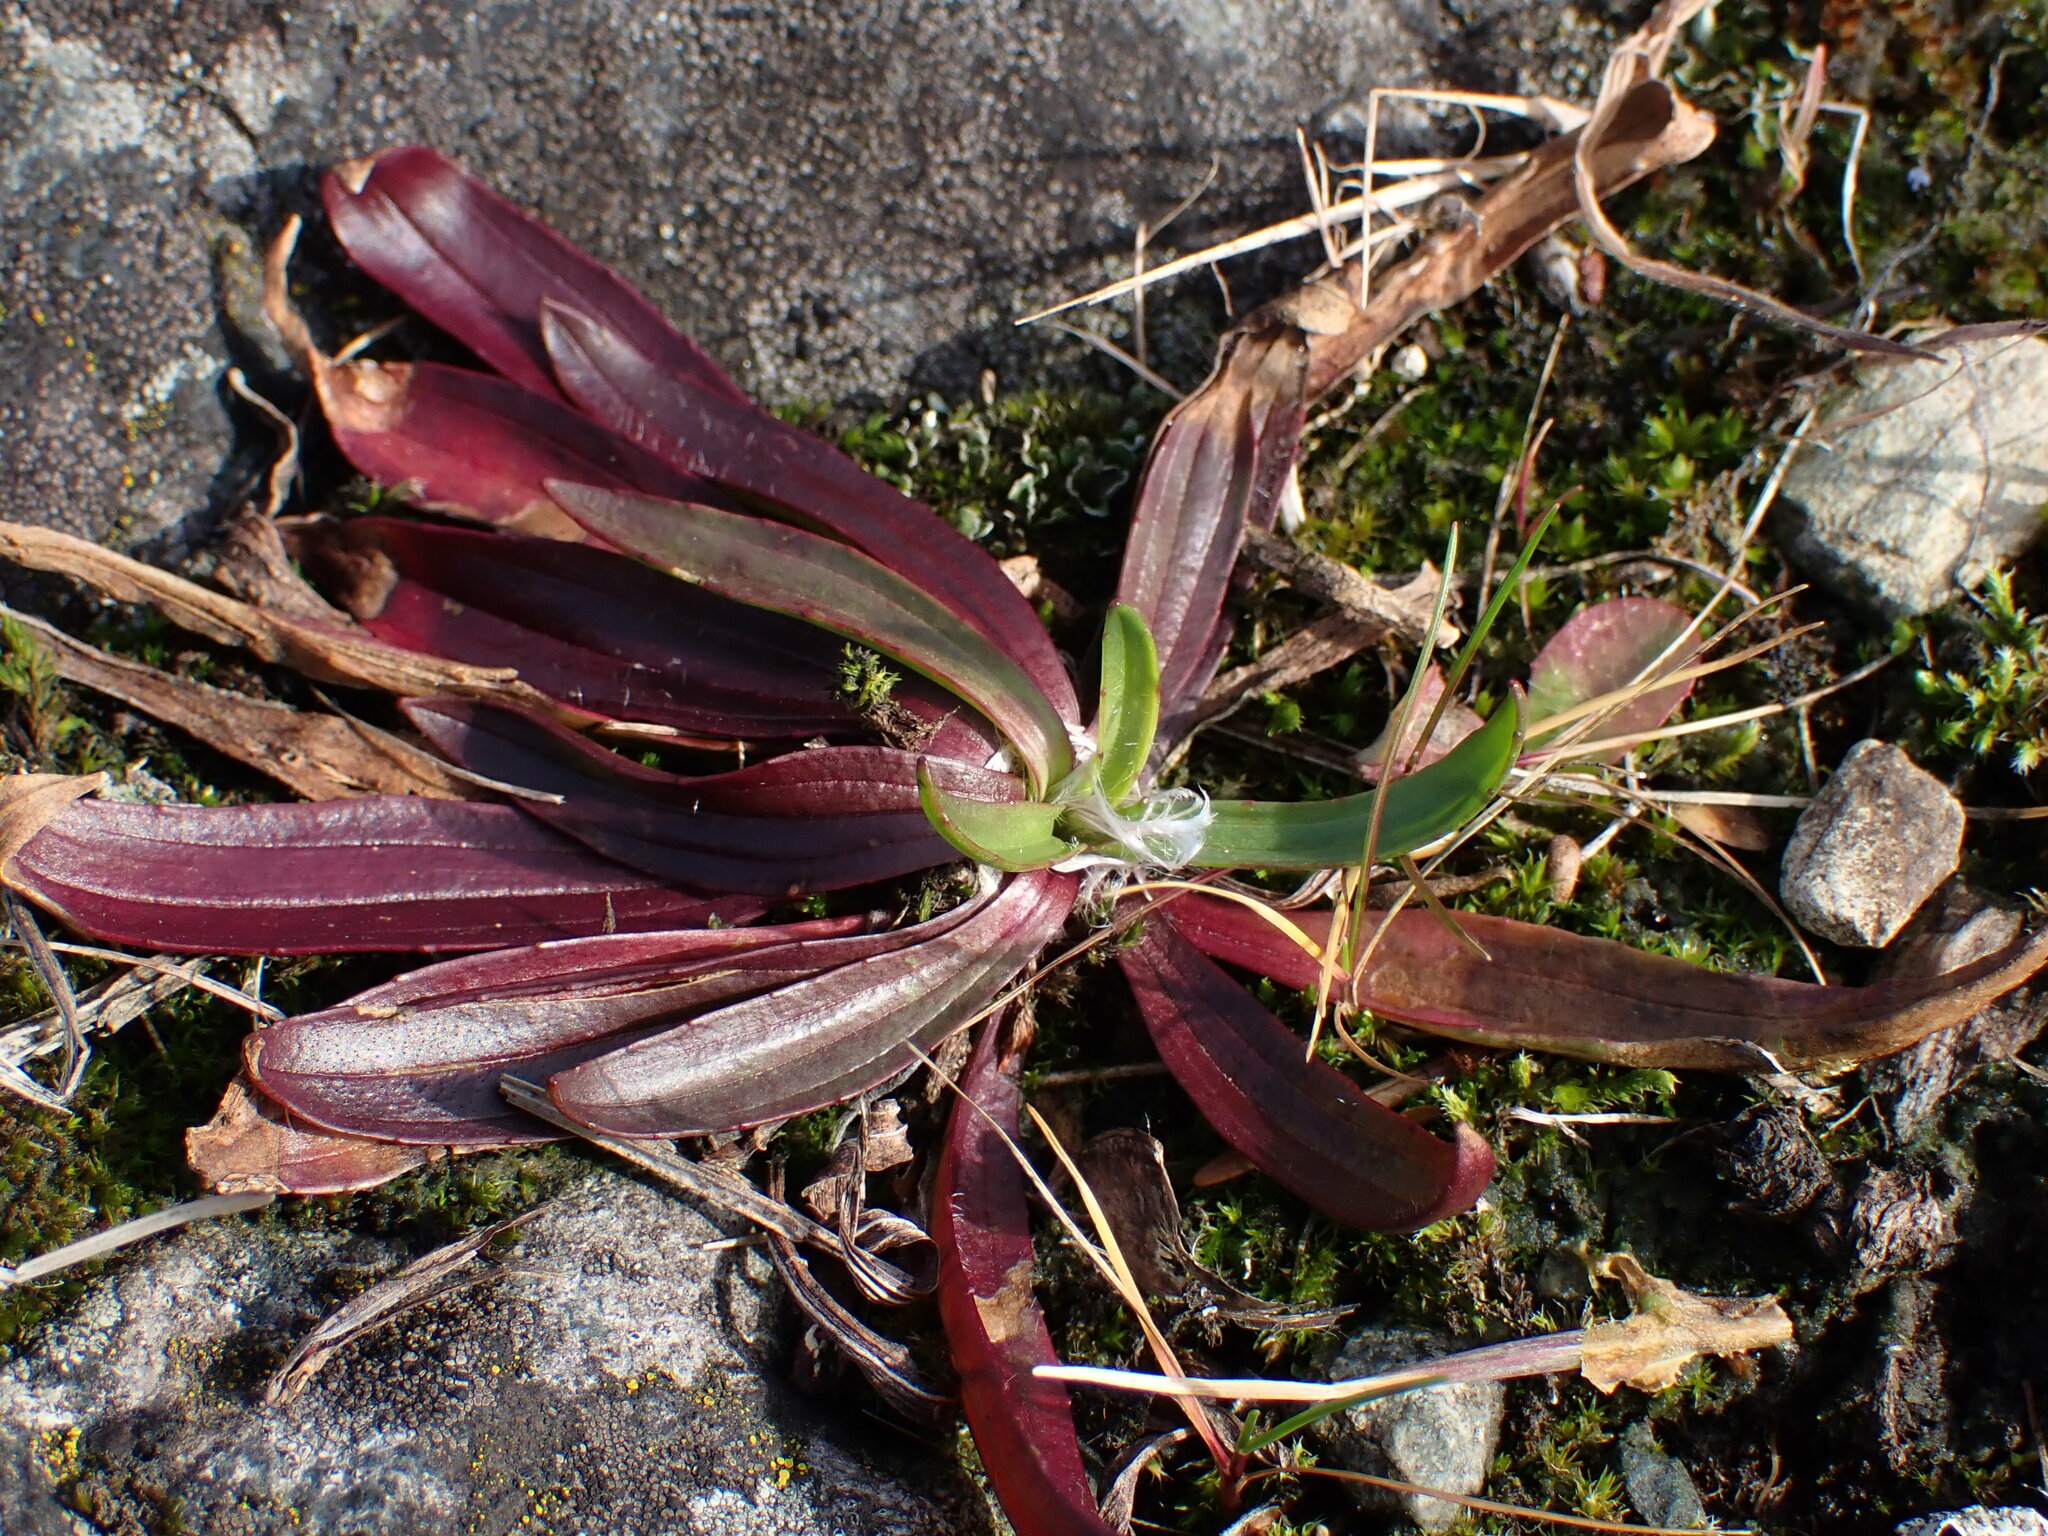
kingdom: Plantae
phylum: Tracheophyta
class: Magnoliopsida
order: Lamiales
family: Plantaginaceae
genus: Plantago
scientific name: Plantago lanceolata
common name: Ribwort plantain
